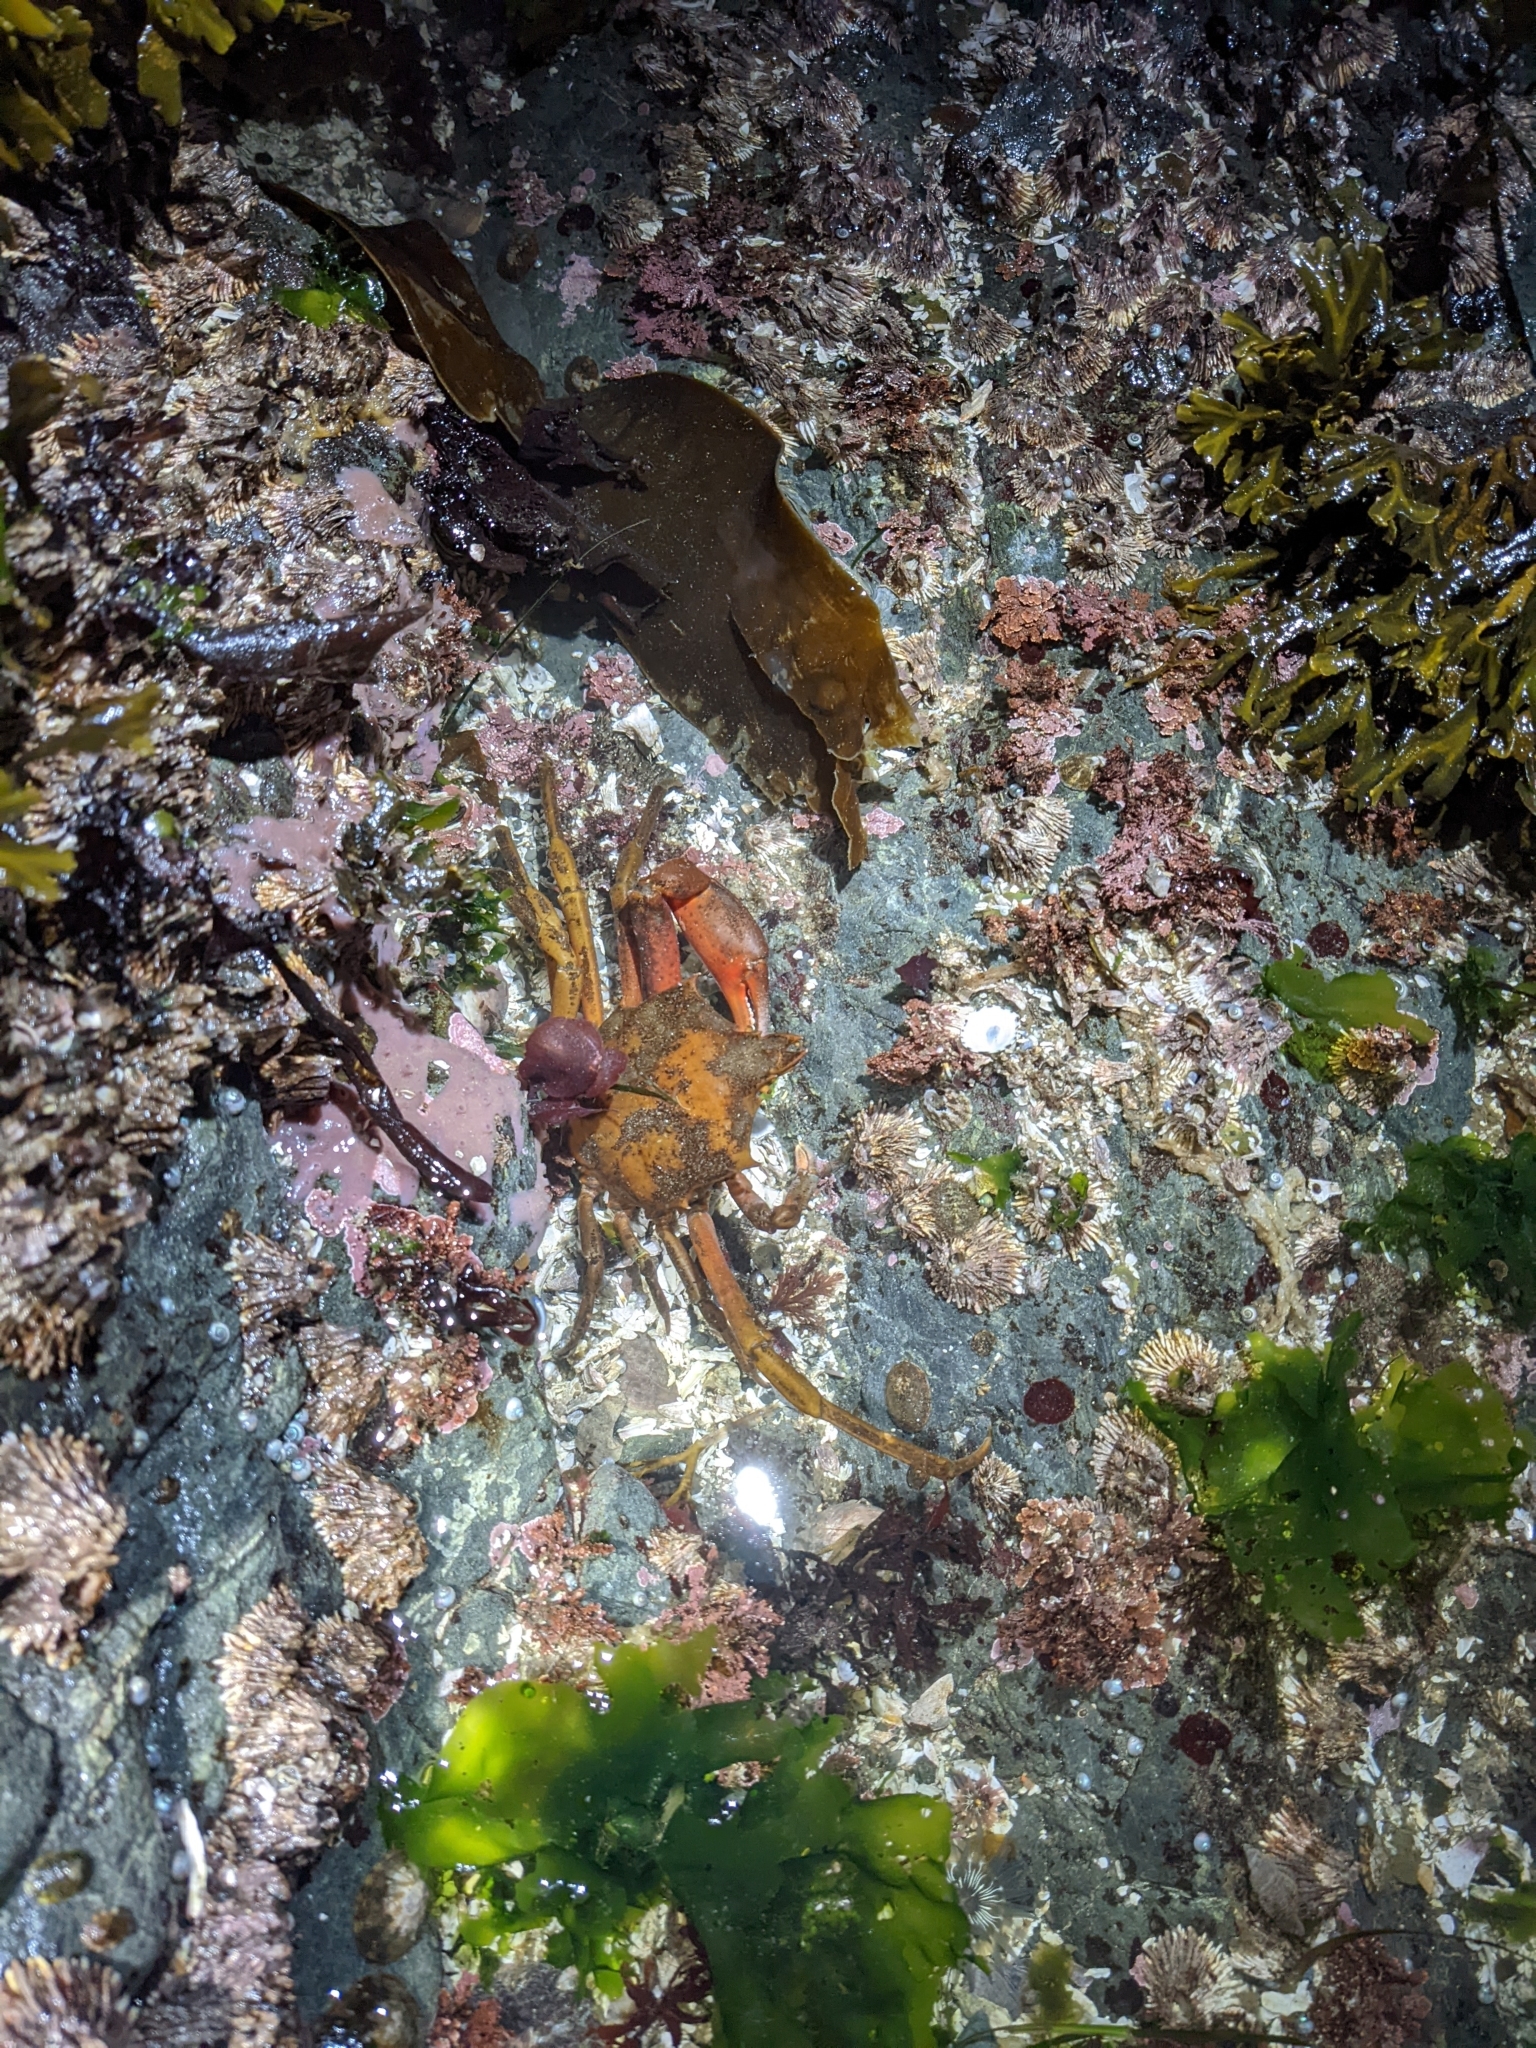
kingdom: Animalia
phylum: Arthropoda
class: Malacostraca
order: Decapoda
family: Epialtidae
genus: Pugettia
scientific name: Pugettia producta
